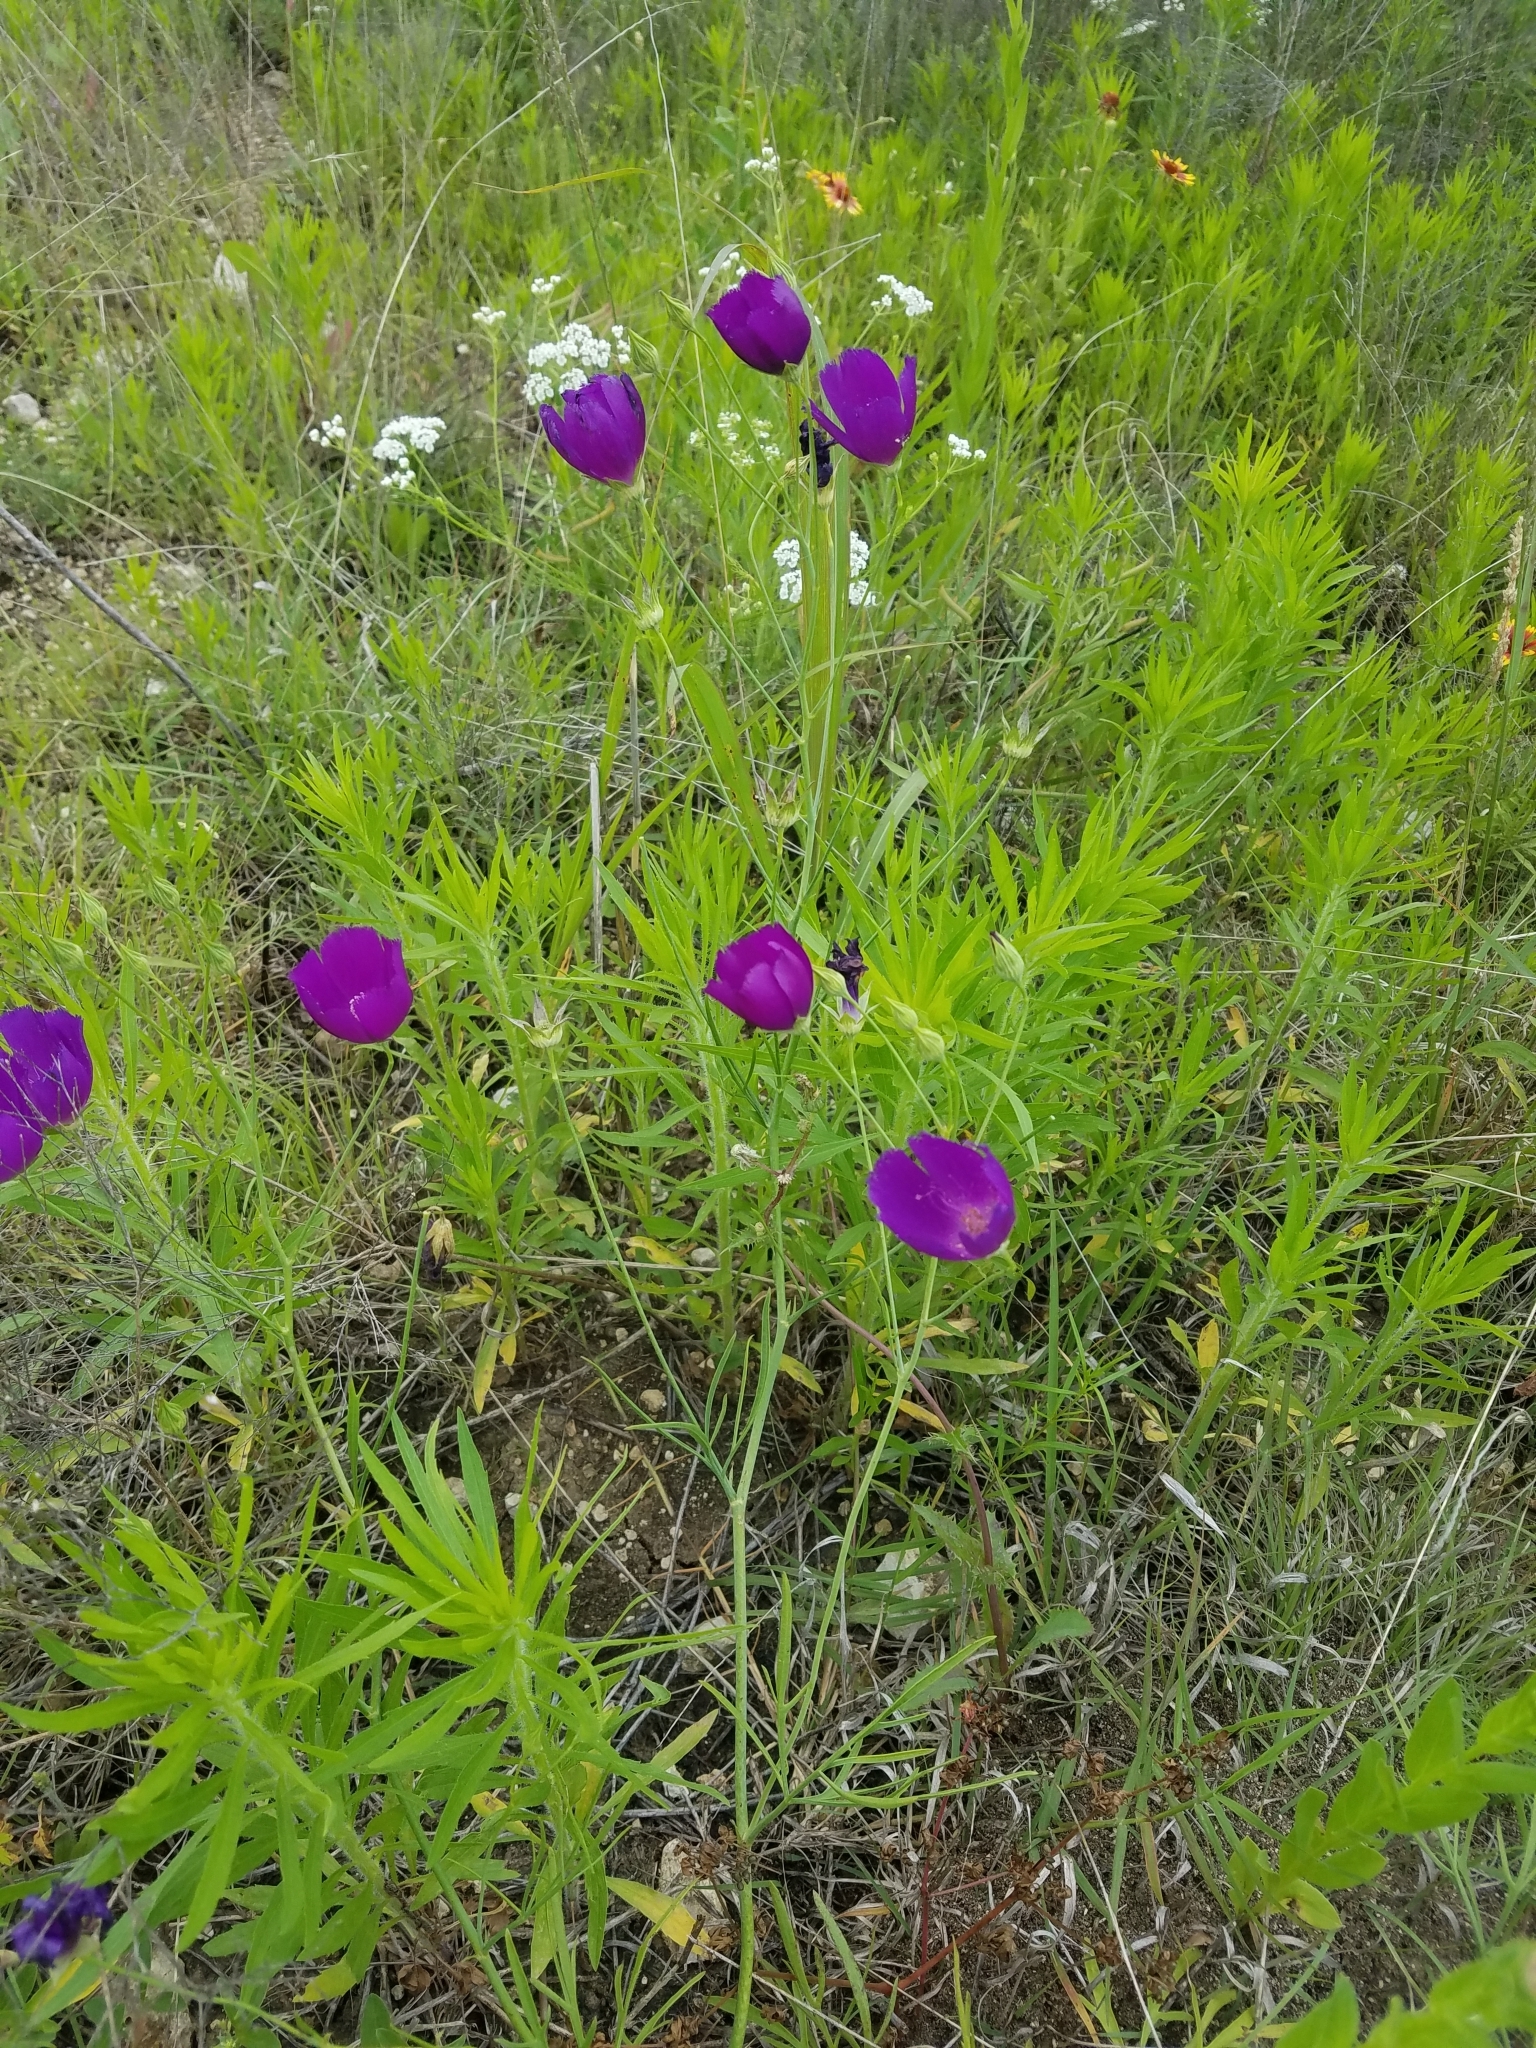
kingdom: Plantae
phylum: Tracheophyta
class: Magnoliopsida
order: Malvales
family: Malvaceae
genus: Callirhoe
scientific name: Callirhoe pedata
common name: Finger poppy-mallow
